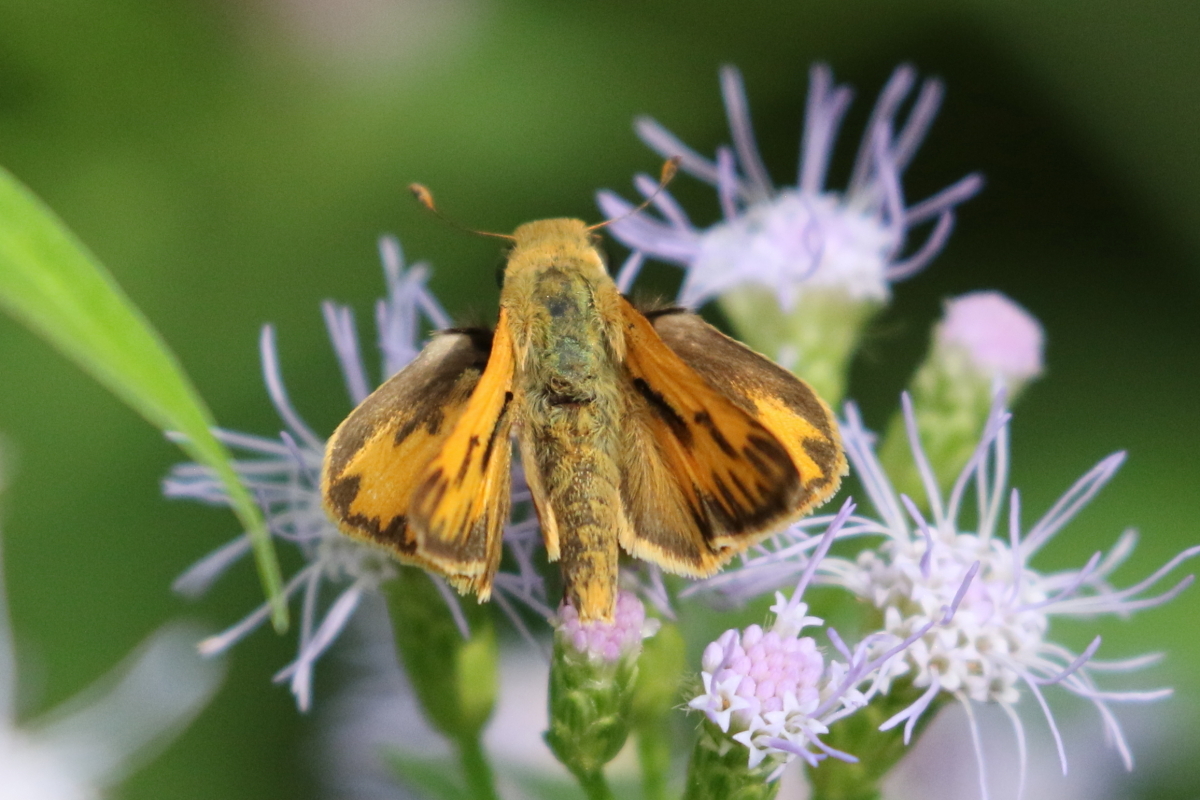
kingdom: Animalia
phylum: Arthropoda
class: Insecta
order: Lepidoptera
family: Hesperiidae
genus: Hylephila
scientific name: Hylephila phyleus
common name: Fiery skipper
